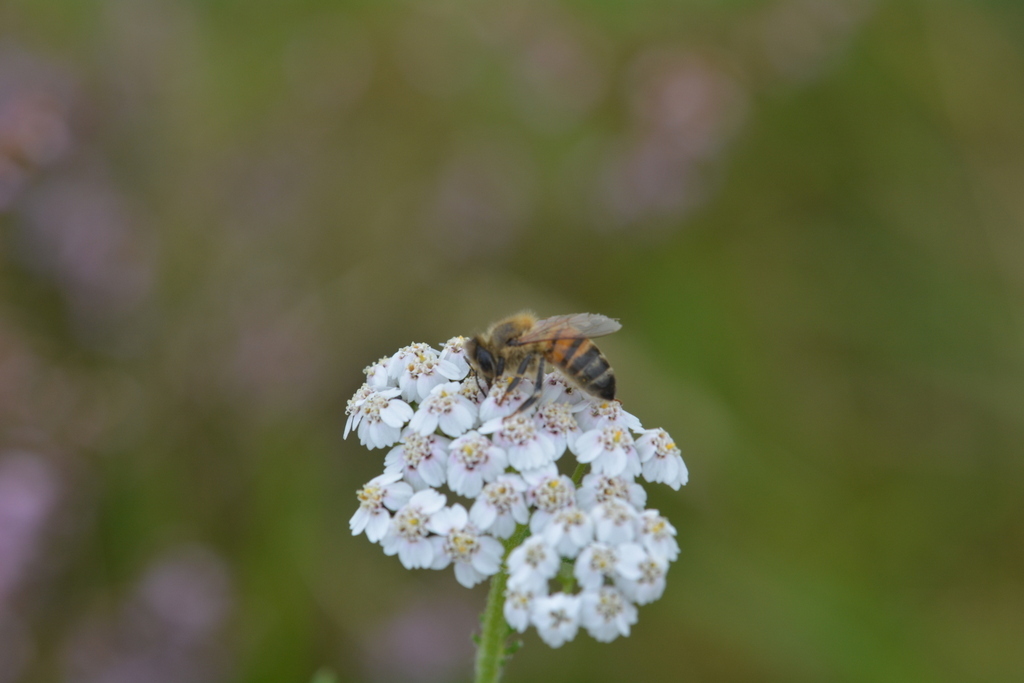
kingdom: Animalia
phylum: Arthropoda
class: Insecta
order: Hymenoptera
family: Apidae
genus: Apis
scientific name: Apis mellifera
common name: Honey bee
